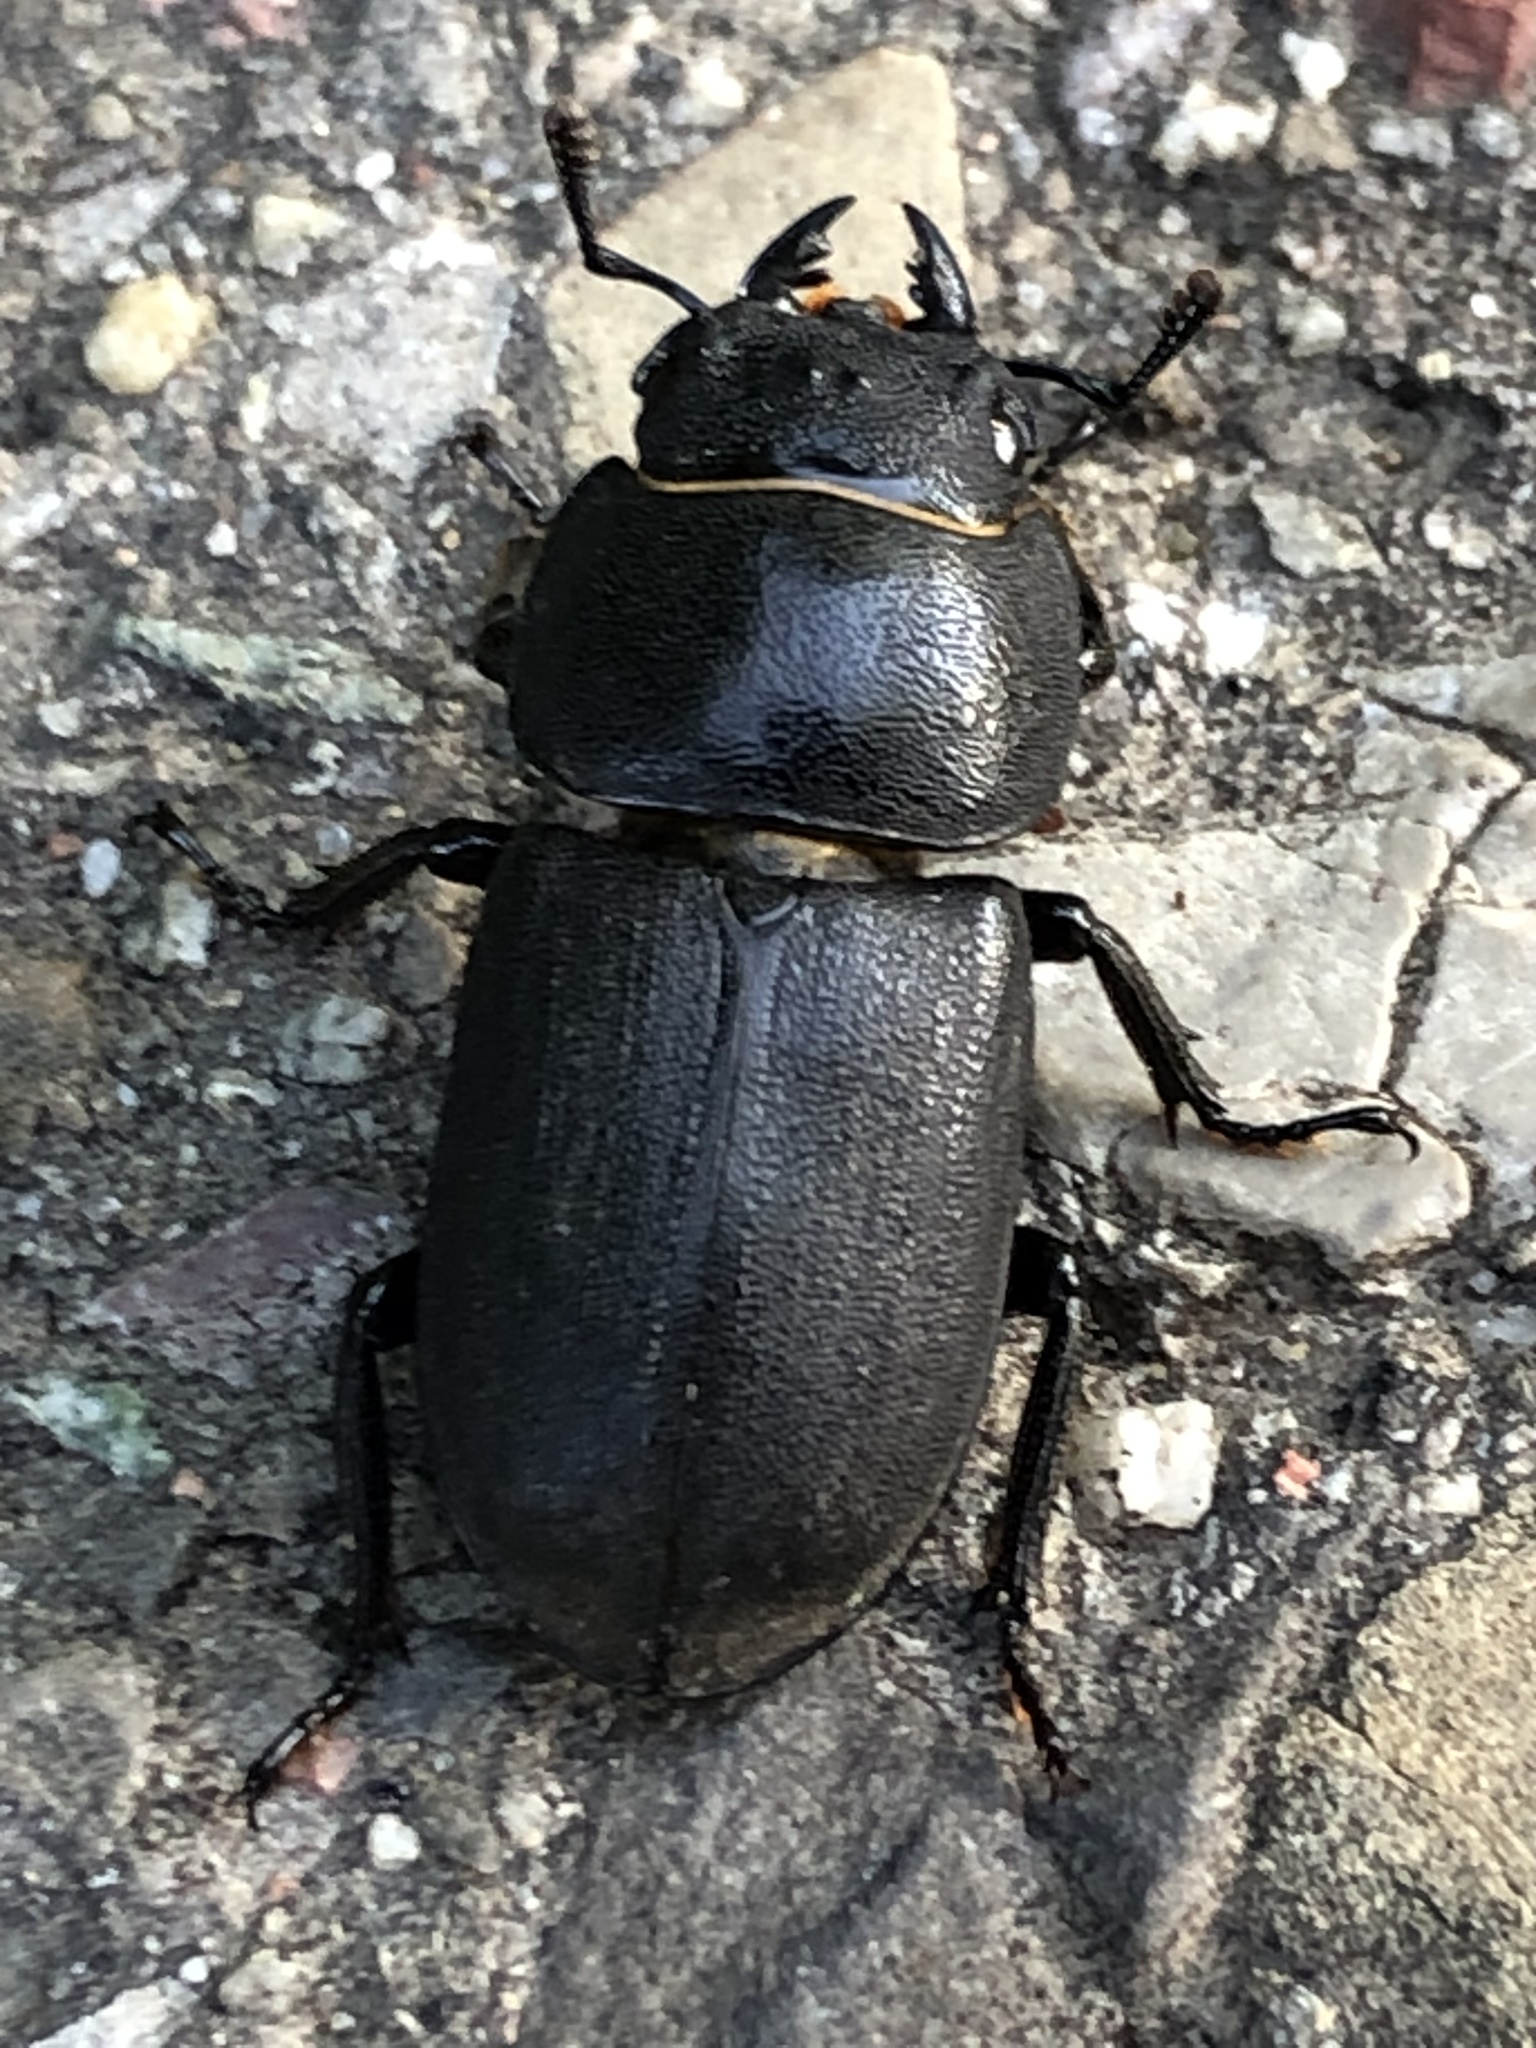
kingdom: Animalia
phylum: Arthropoda
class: Insecta
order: Coleoptera
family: Lucanidae
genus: Dorcus
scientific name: Dorcus parallelipipedus
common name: Lesser stag beetle
